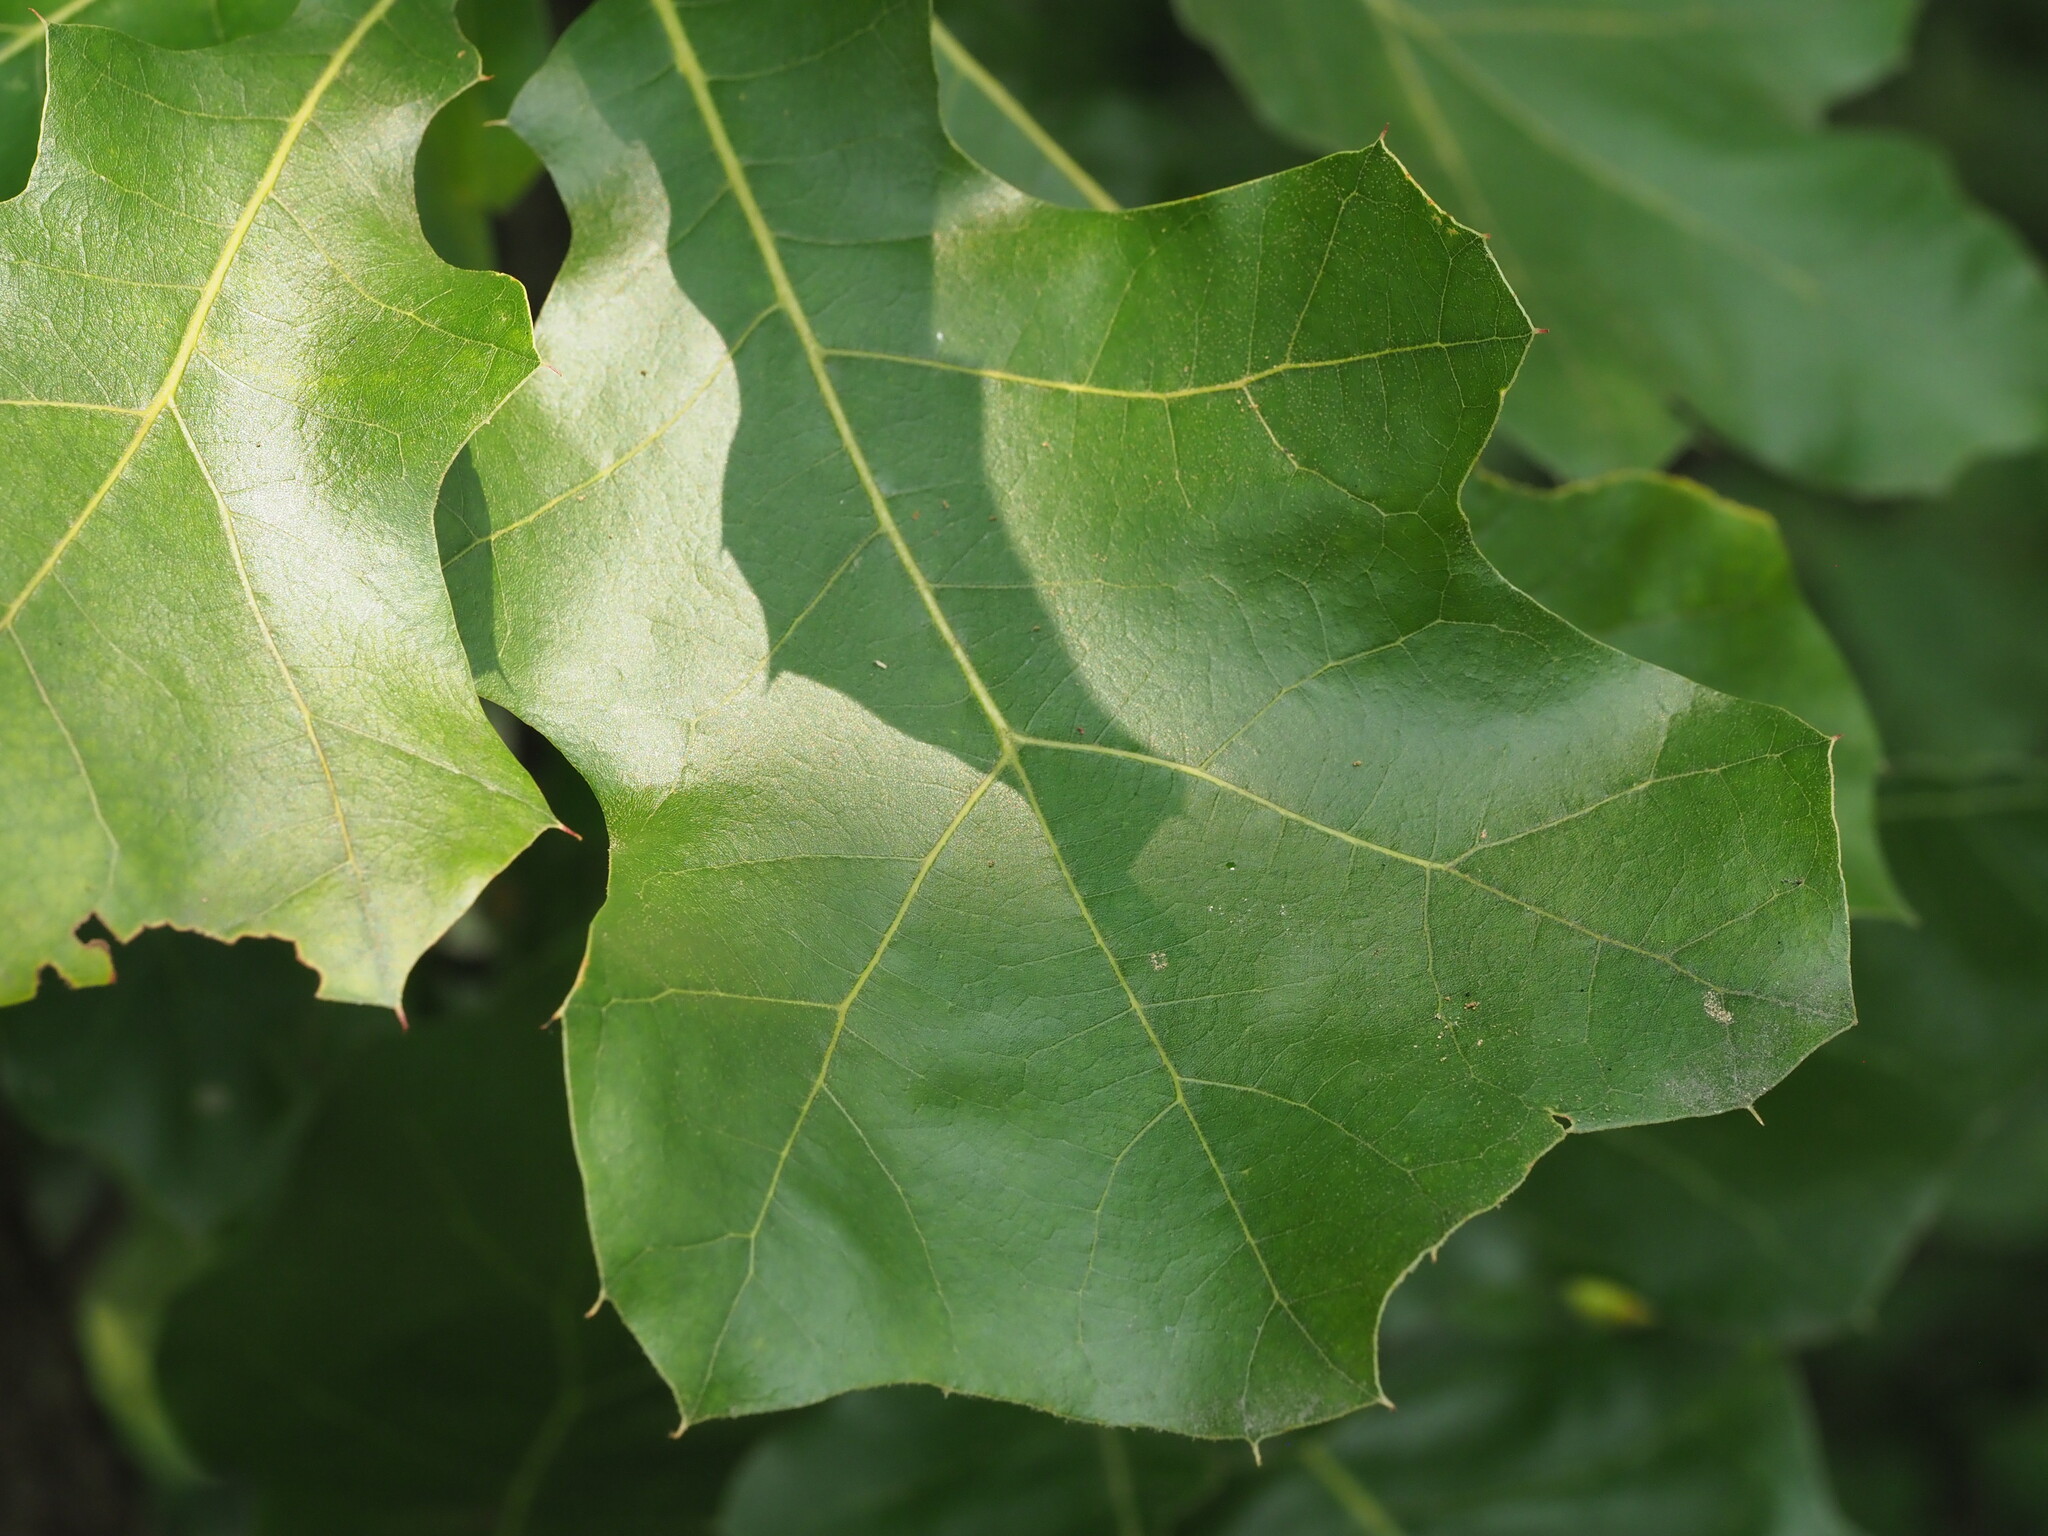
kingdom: Plantae
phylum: Tracheophyta
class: Magnoliopsida
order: Fagales
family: Fagaceae
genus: Quercus
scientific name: Quercus marilandica
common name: Blackjack oak
